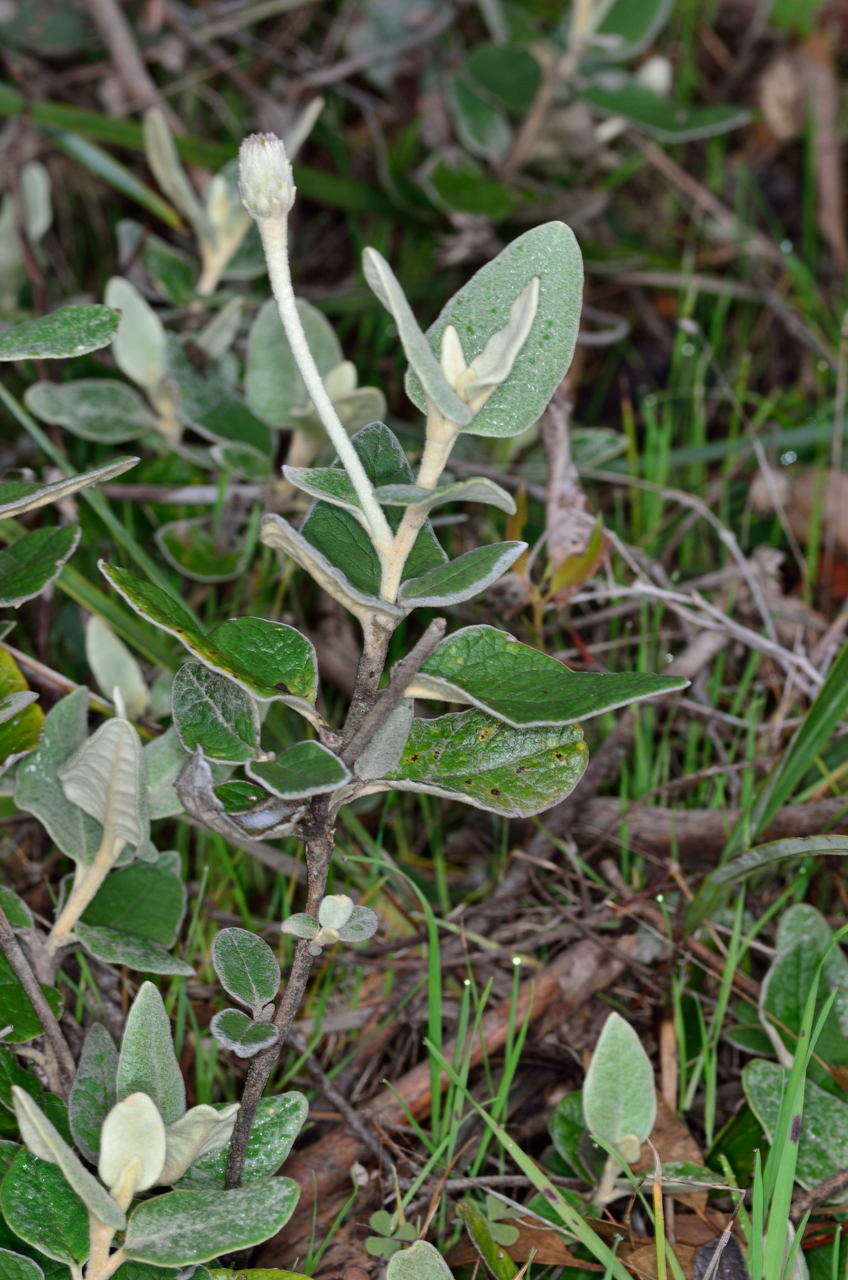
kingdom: Plantae
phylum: Tracheophyta
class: Magnoliopsida
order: Asterales
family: Asteraceae
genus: Olearia
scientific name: Olearia pannosa
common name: Velvet daisybush
